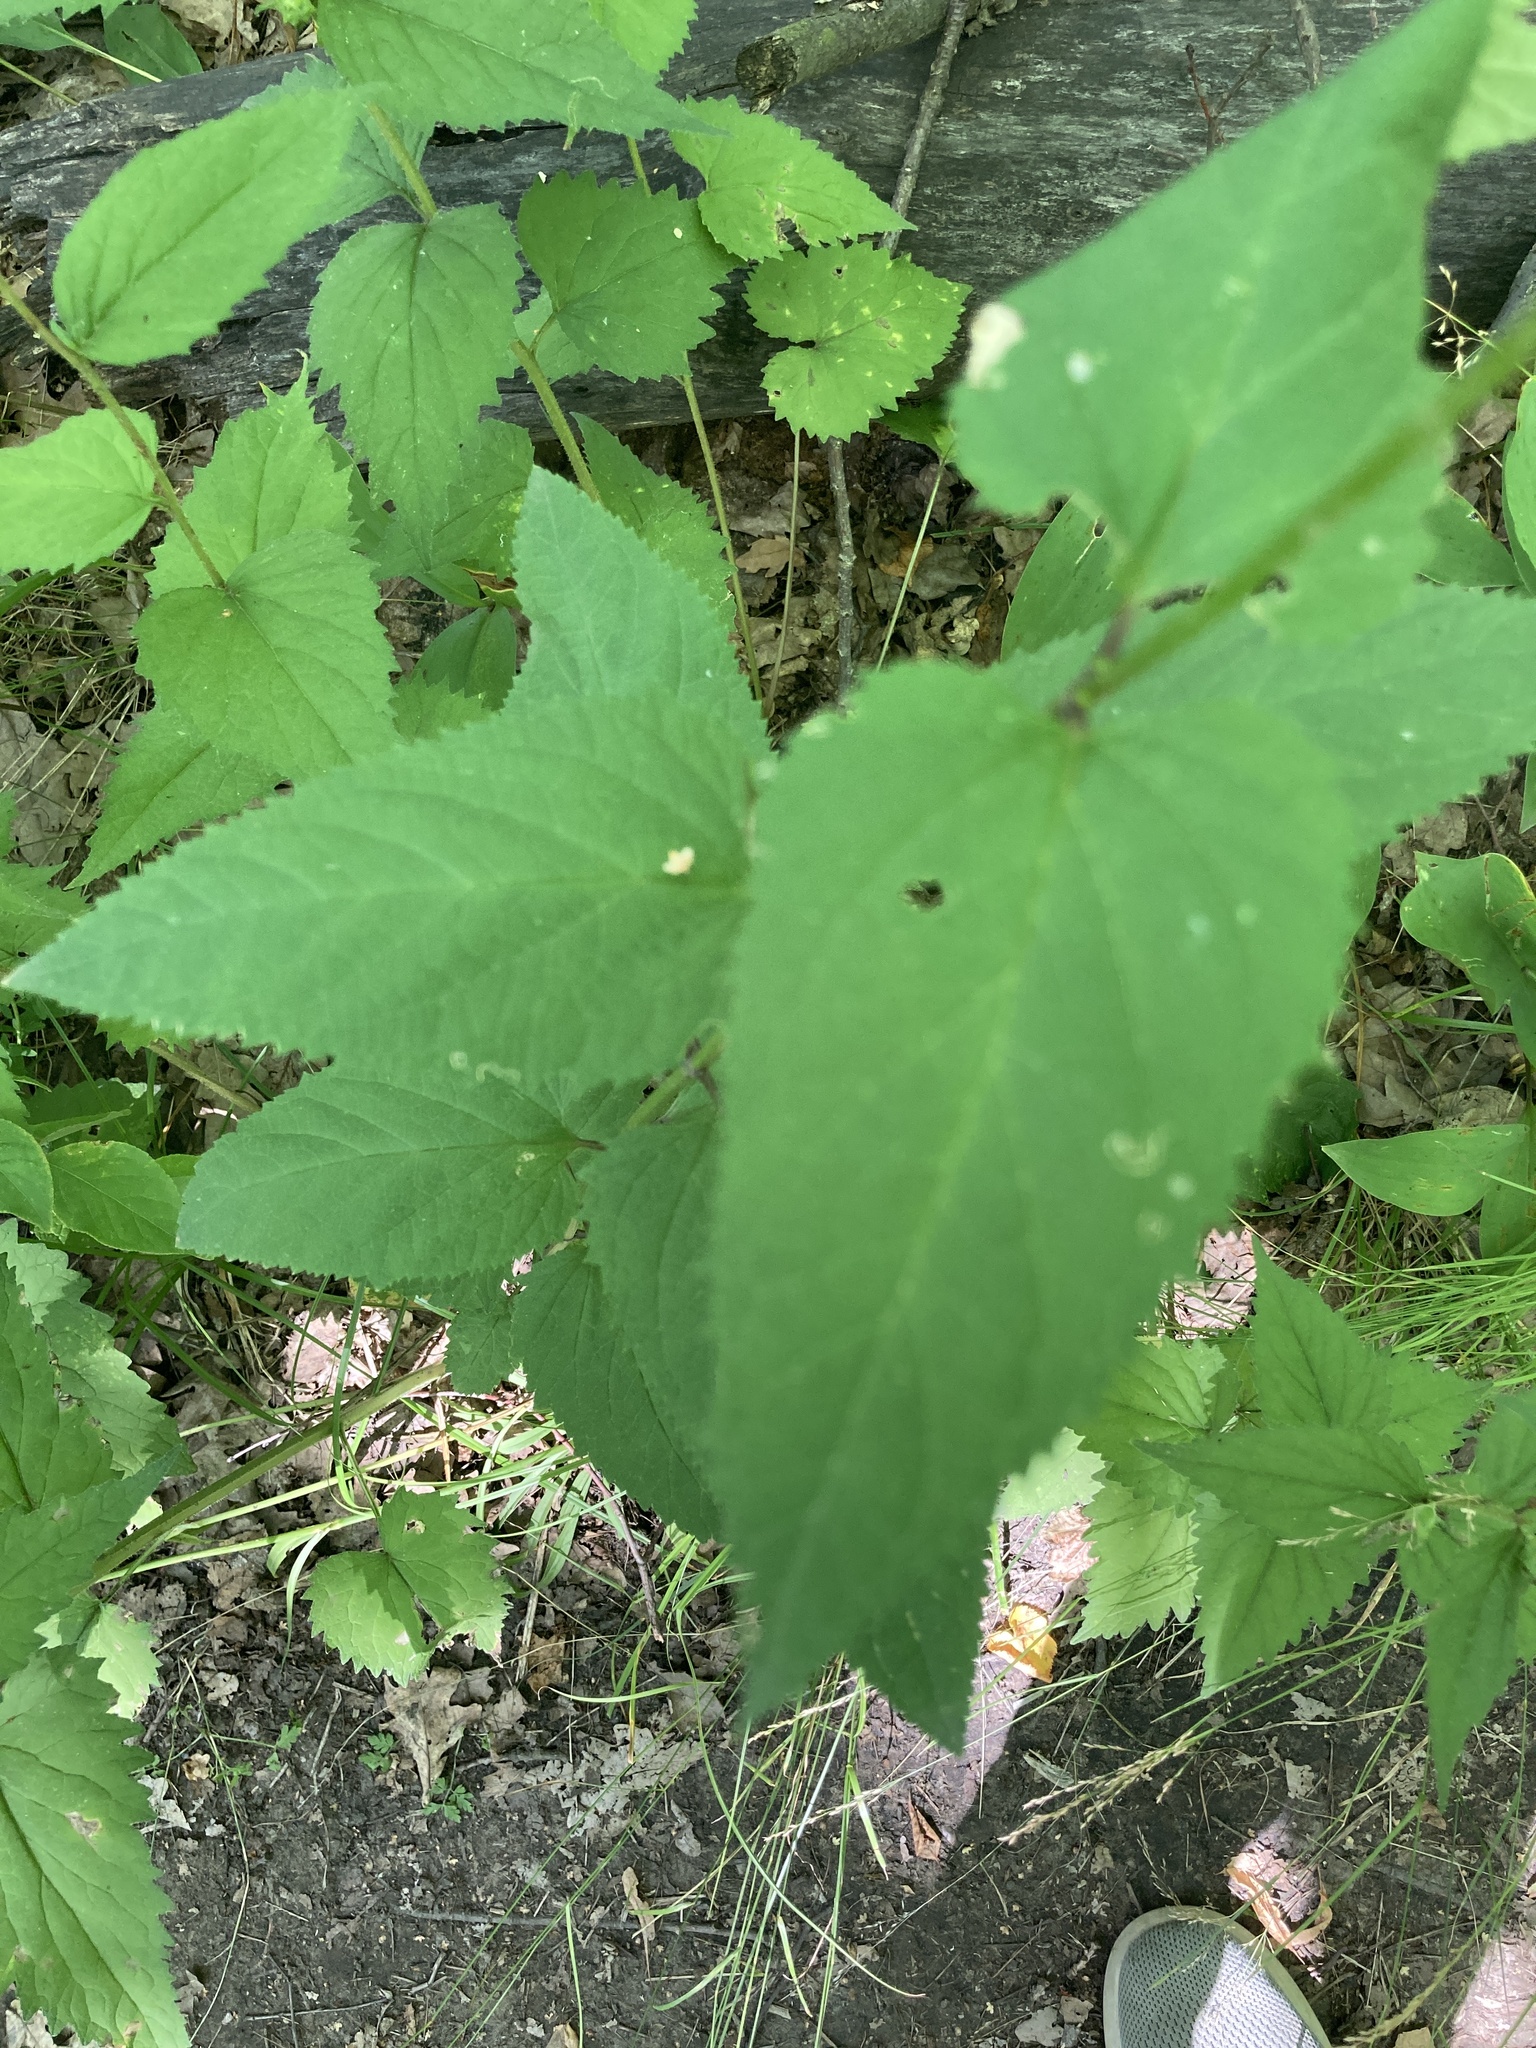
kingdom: Plantae
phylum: Tracheophyta
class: Magnoliopsida
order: Lamiales
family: Scrophulariaceae
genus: Scrophularia
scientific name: Scrophularia nodosa
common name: Common figwort
